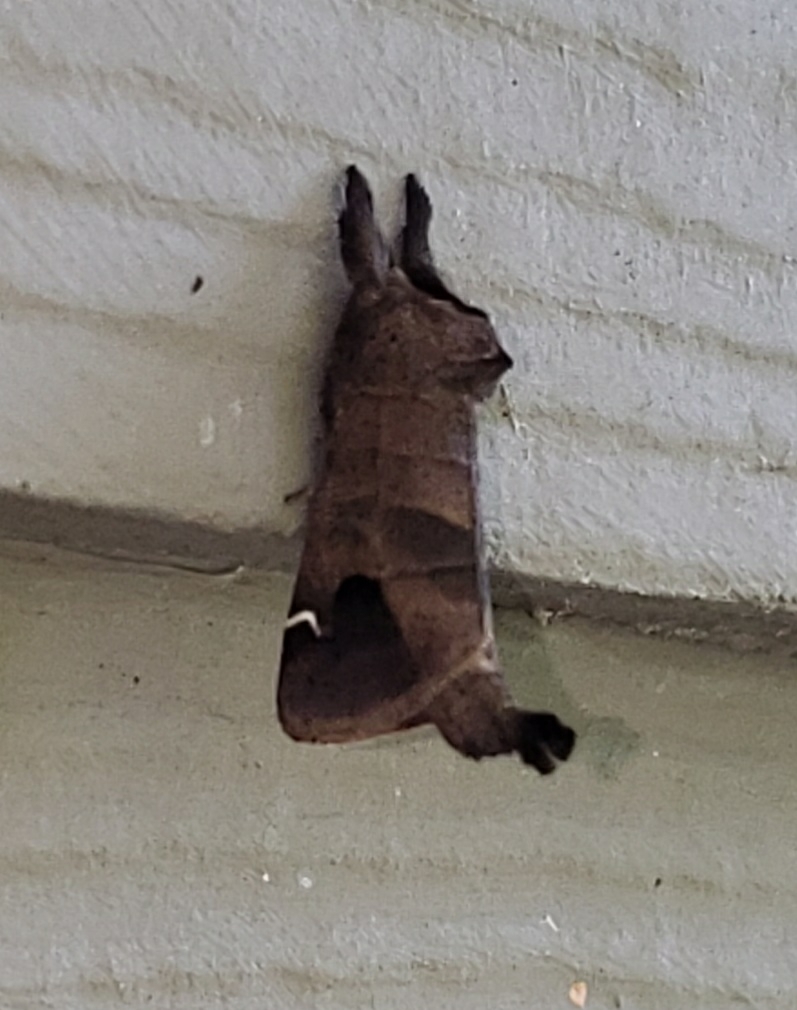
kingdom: Animalia
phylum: Arthropoda
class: Insecta
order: Lepidoptera
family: Notodontidae
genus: Clostera
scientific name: Clostera albosigma
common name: Sigmoid prominent
